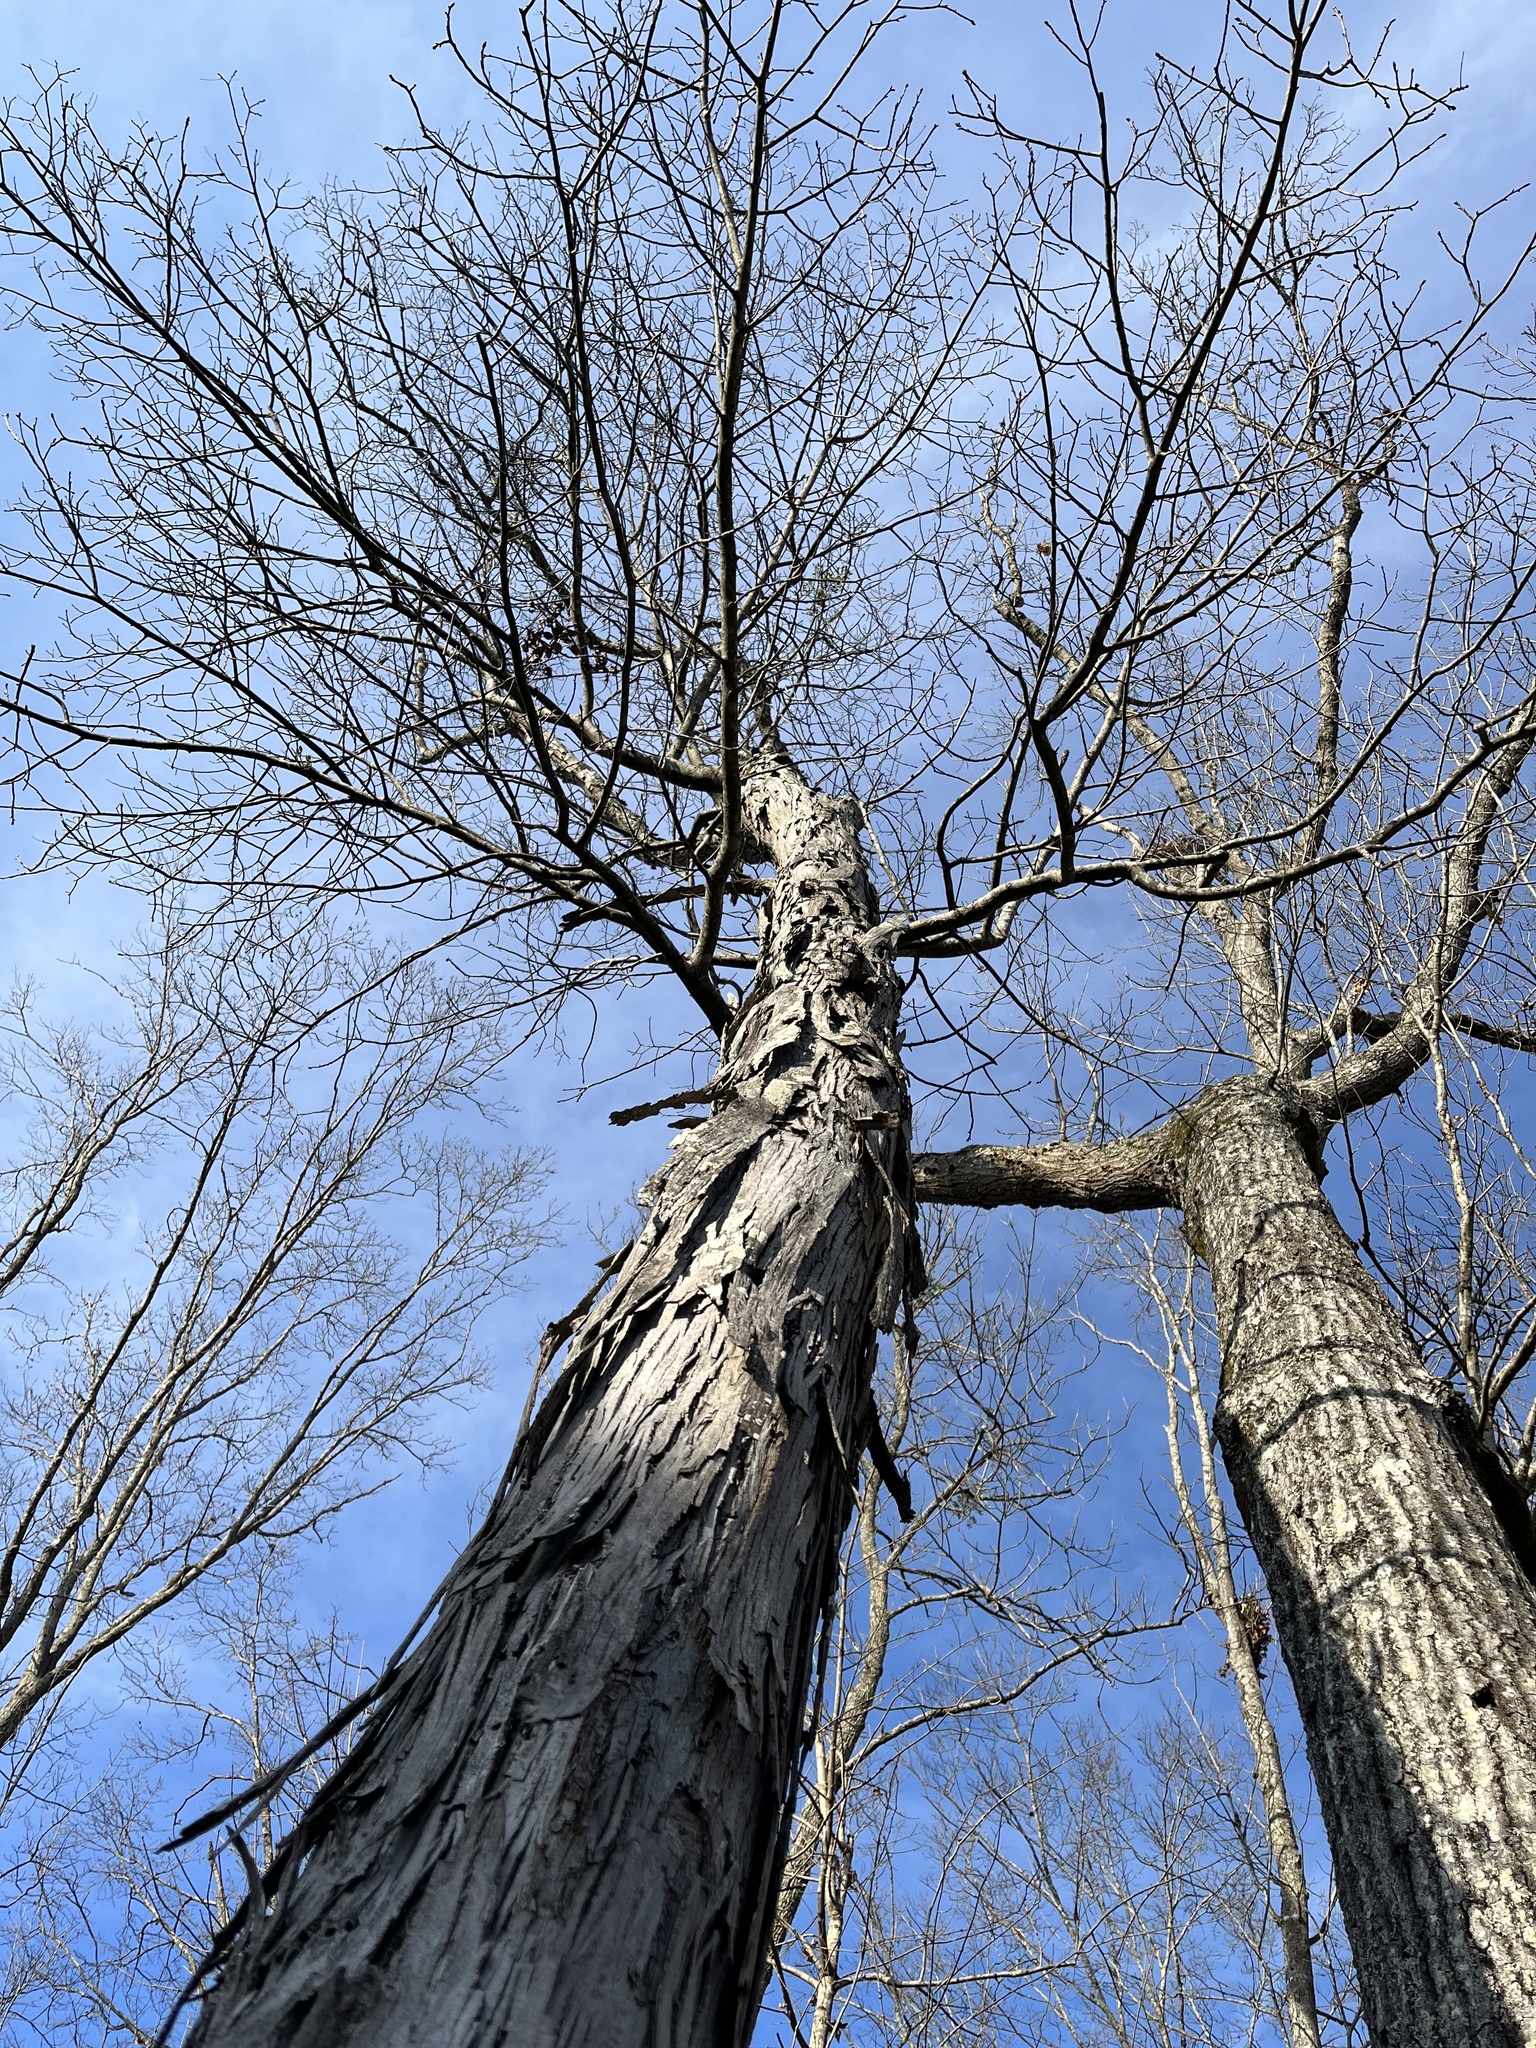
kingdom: Plantae
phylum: Tracheophyta
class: Magnoliopsida
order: Fagales
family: Juglandaceae
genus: Carya
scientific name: Carya ovata
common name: Shagbark hickory
